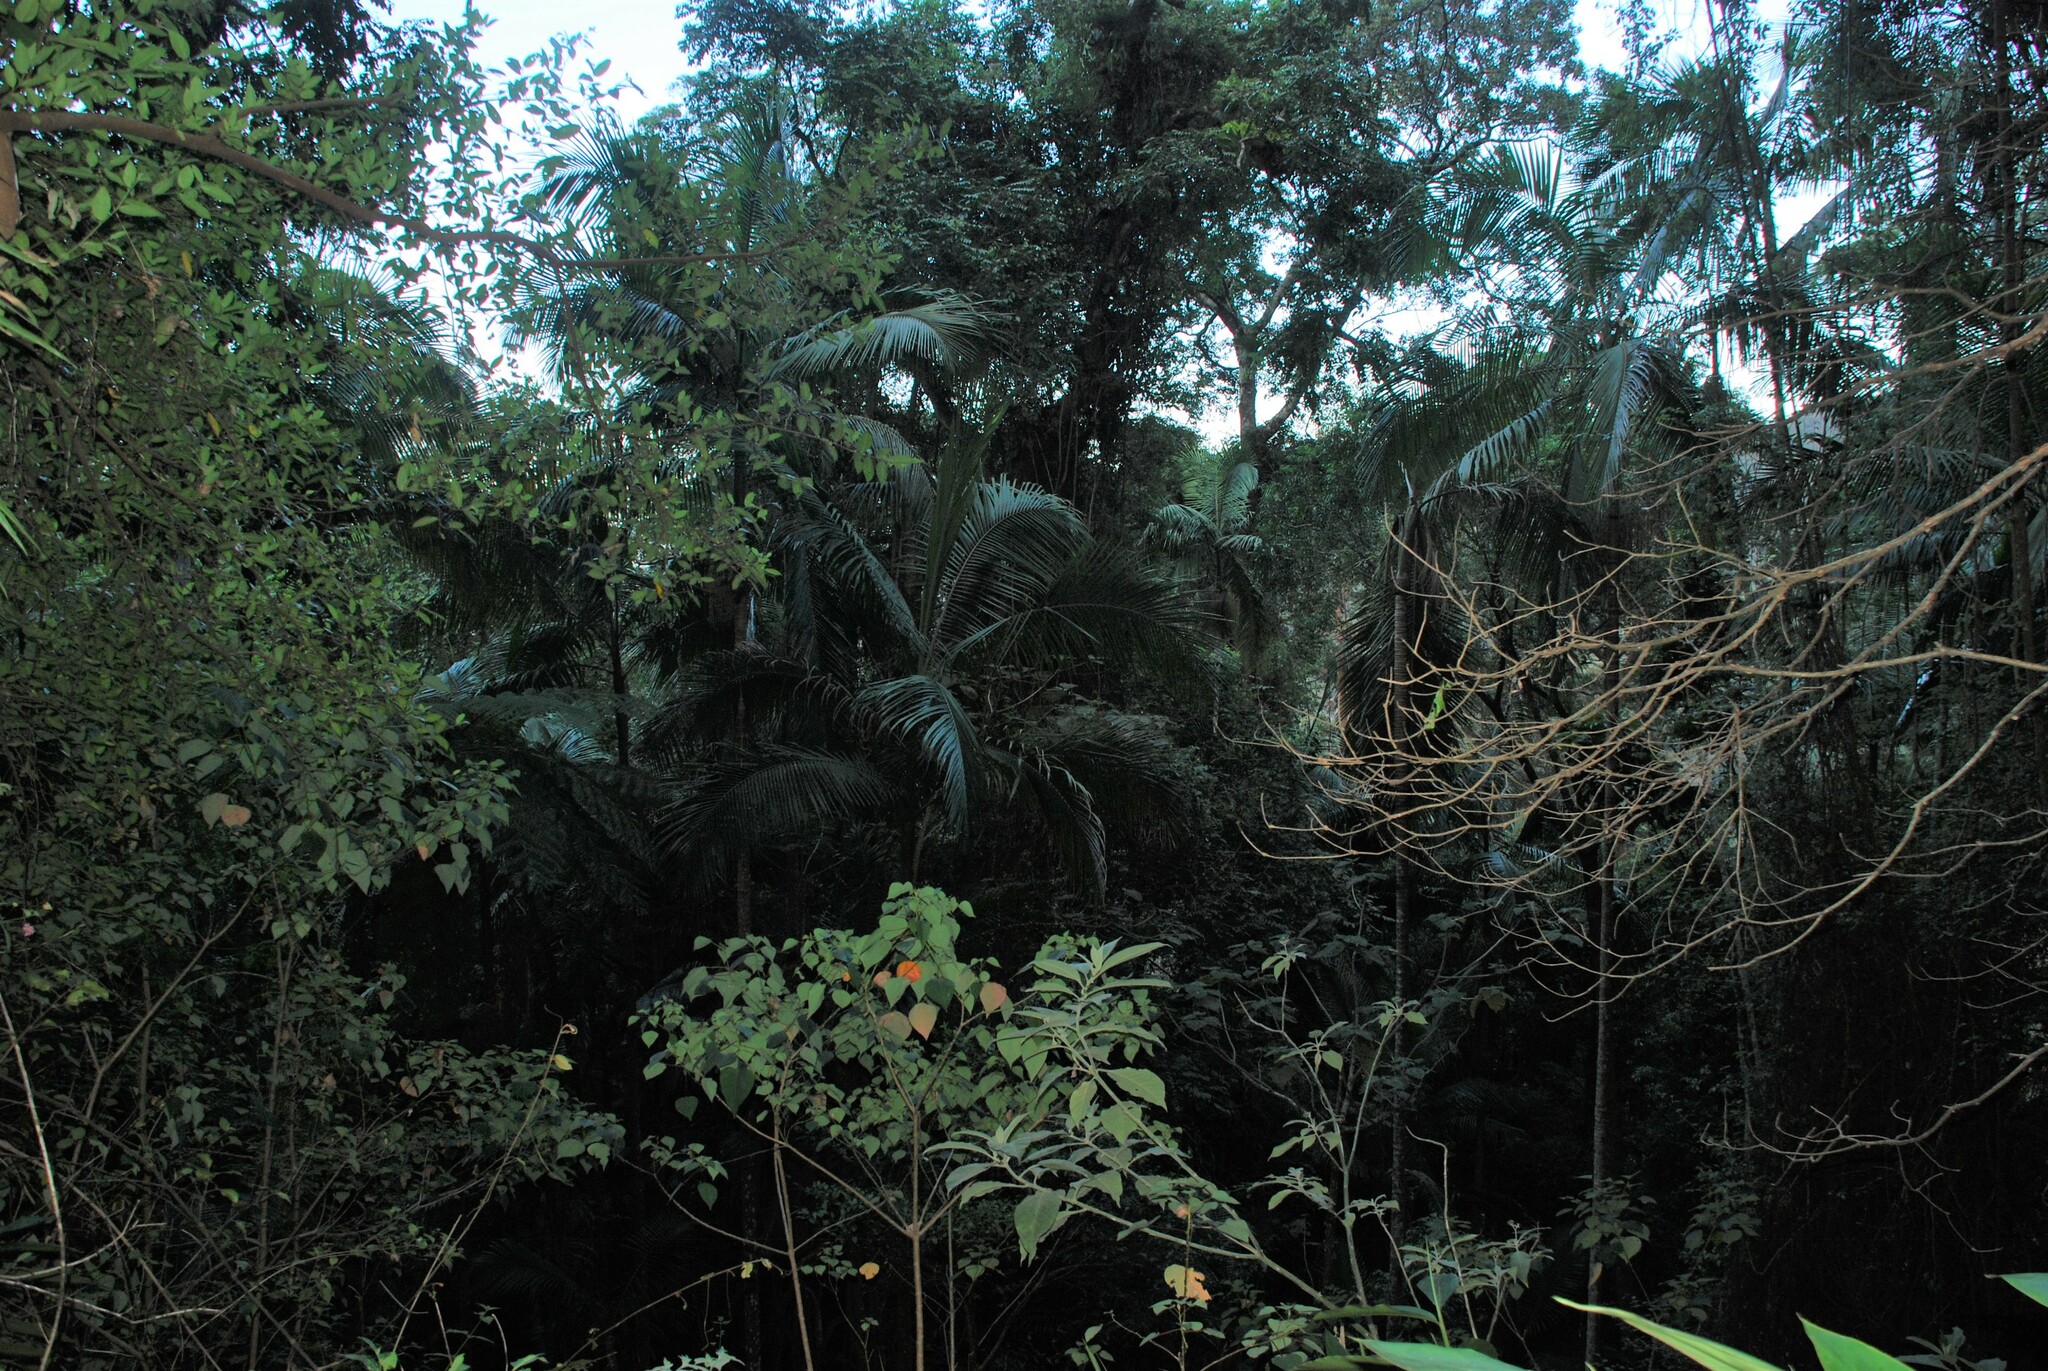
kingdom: Plantae
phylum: Tracheophyta
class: Magnoliopsida
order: Malpighiales
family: Euphorbiaceae
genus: Homalanthus
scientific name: Homalanthus populifolius
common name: Queensland poplar
